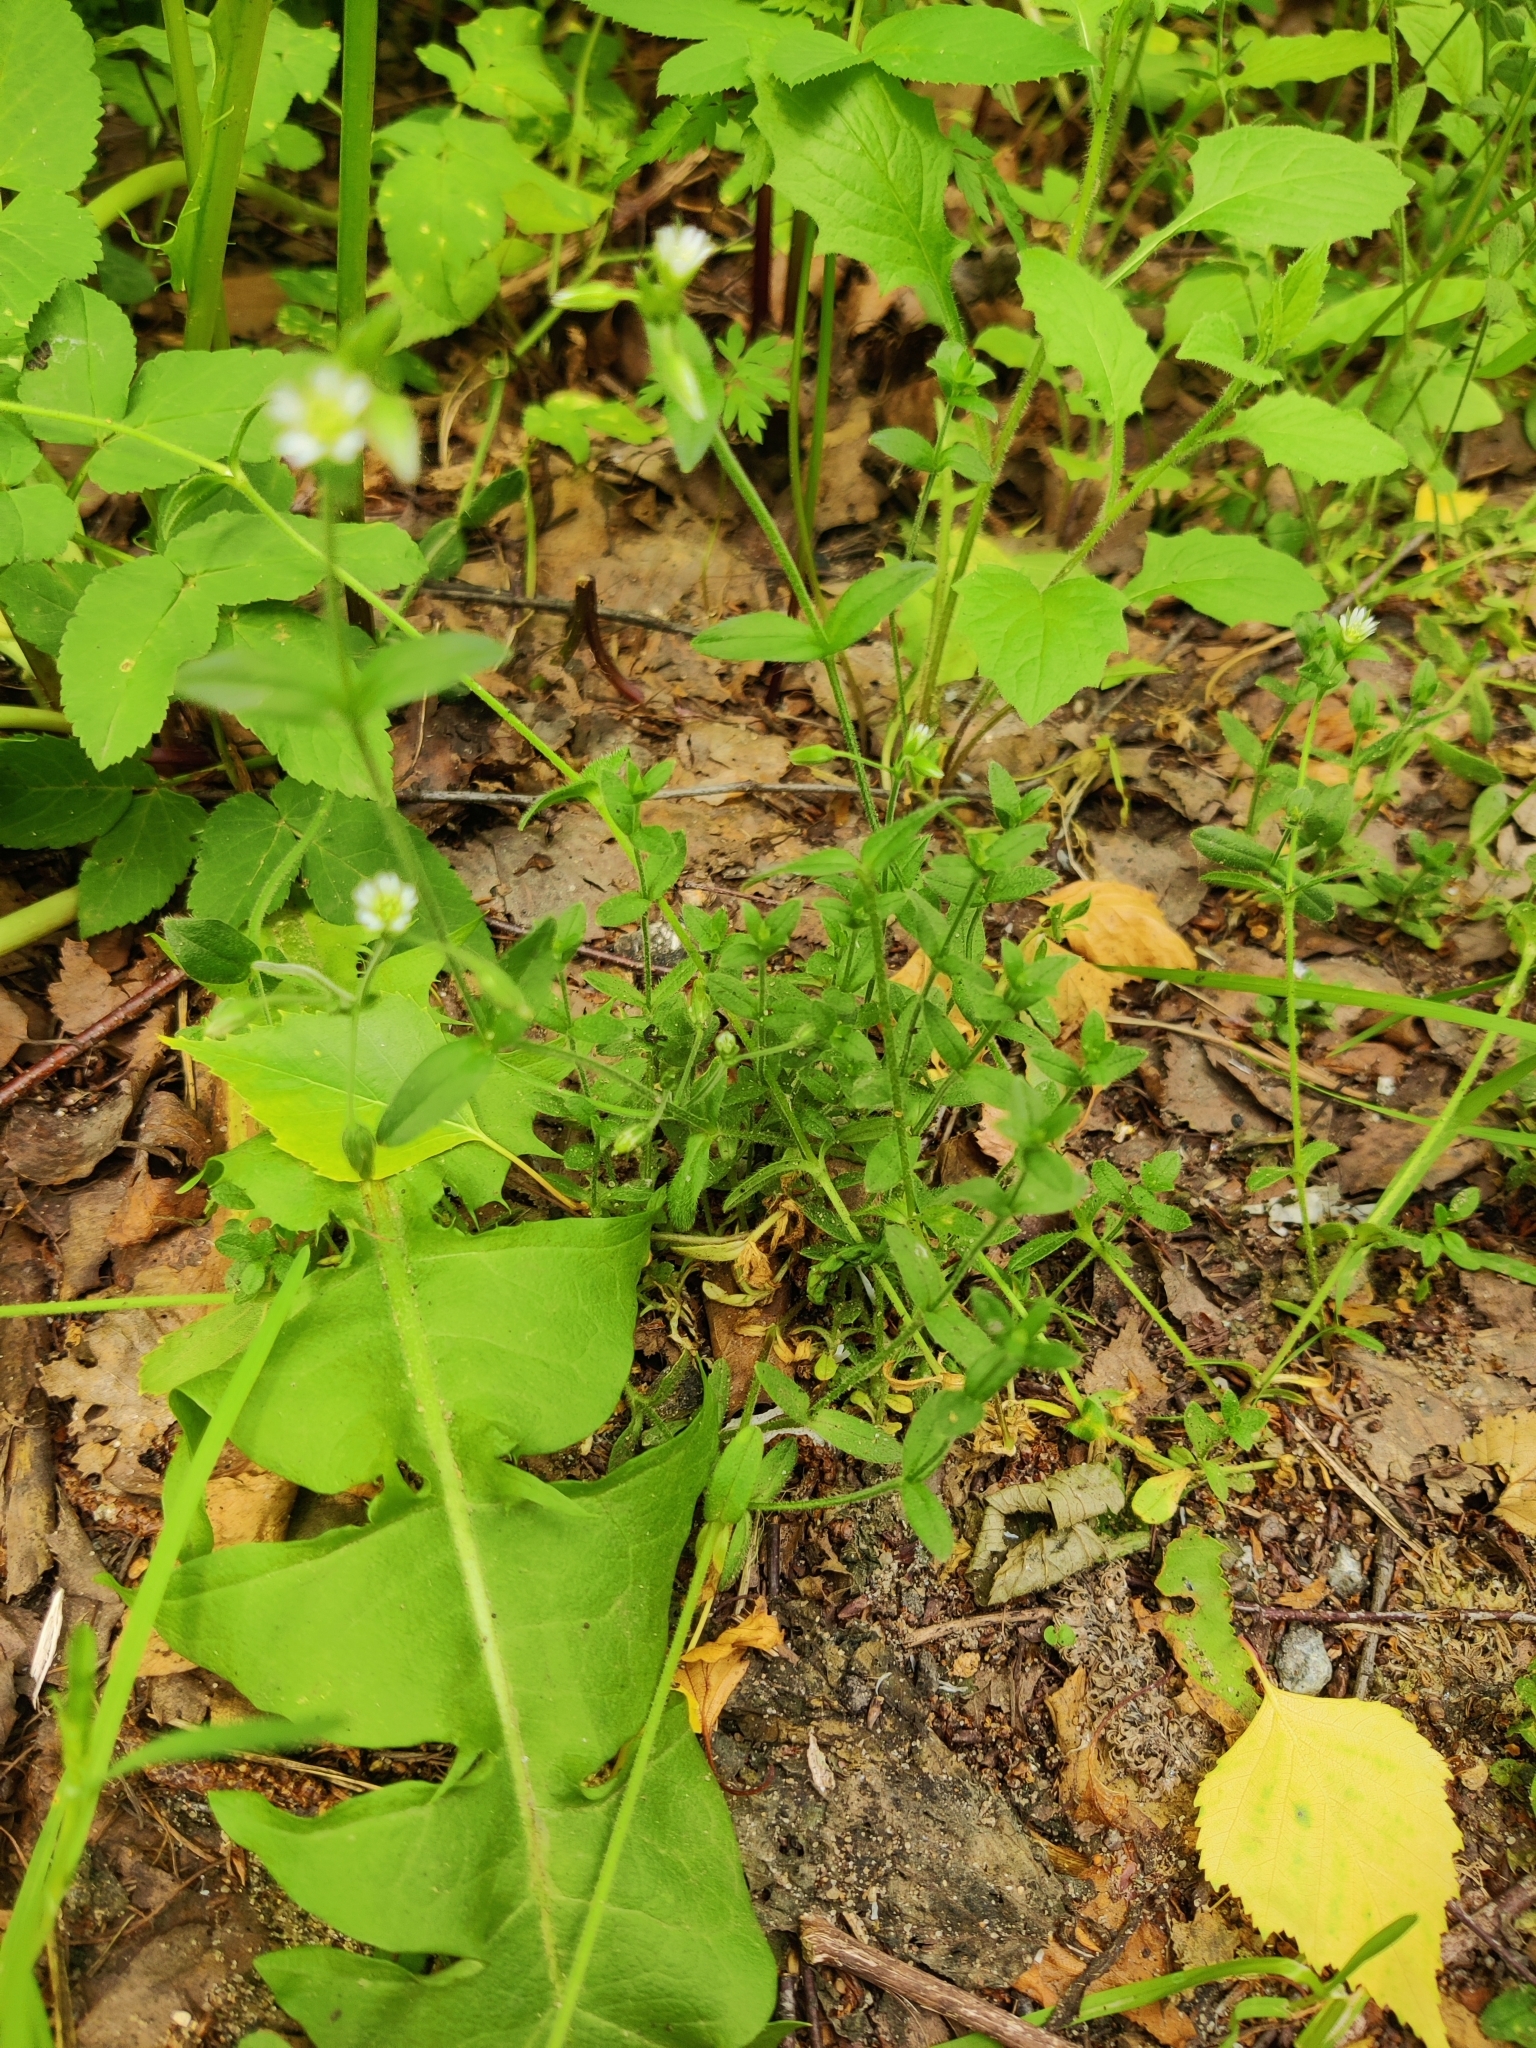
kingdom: Plantae
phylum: Tracheophyta
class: Magnoliopsida
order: Caryophyllales
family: Caryophyllaceae
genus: Cerastium
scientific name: Cerastium holosteoides
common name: Big chickweed
